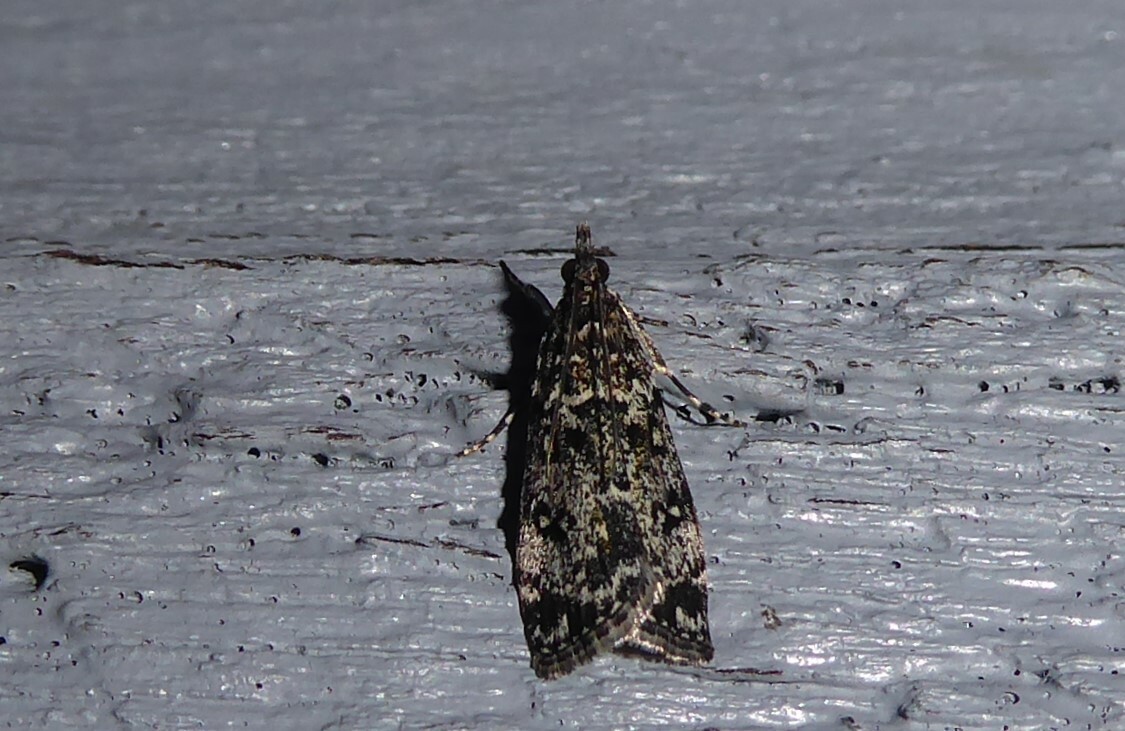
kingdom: Animalia
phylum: Arthropoda
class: Insecta
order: Lepidoptera
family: Crambidae
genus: Eudonia
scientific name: Eudonia philerga
